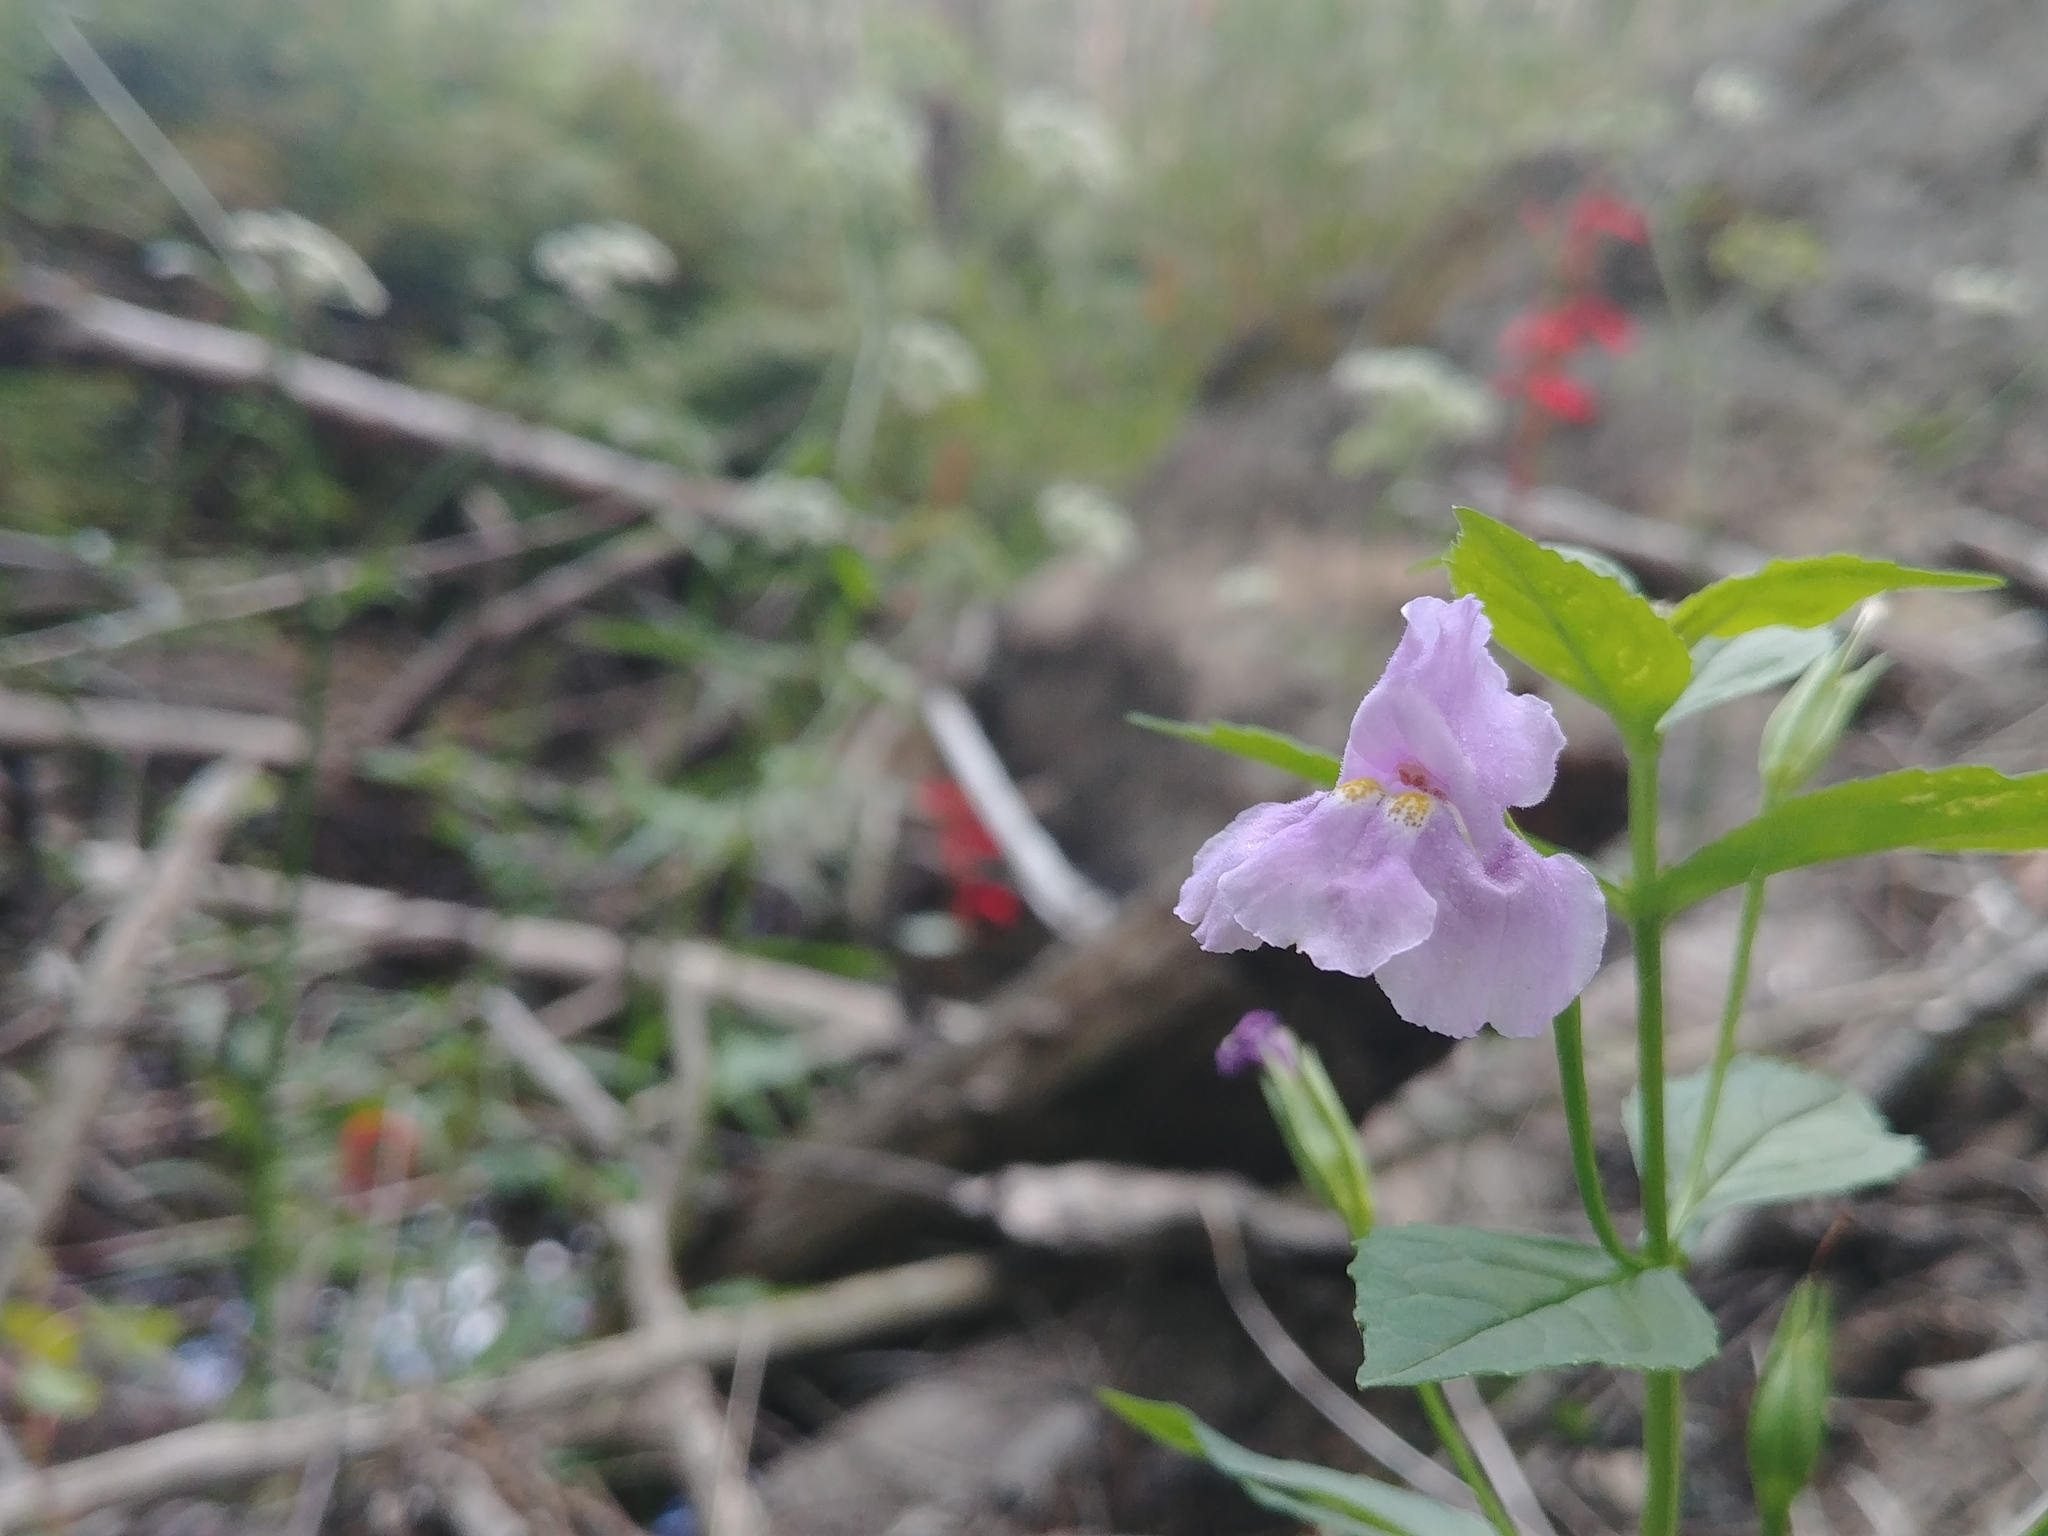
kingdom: Plantae
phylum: Tracheophyta
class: Magnoliopsida
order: Lamiales
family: Phrymaceae
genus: Mimulus
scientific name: Mimulus ringens
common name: Allegheny monkeyflower
